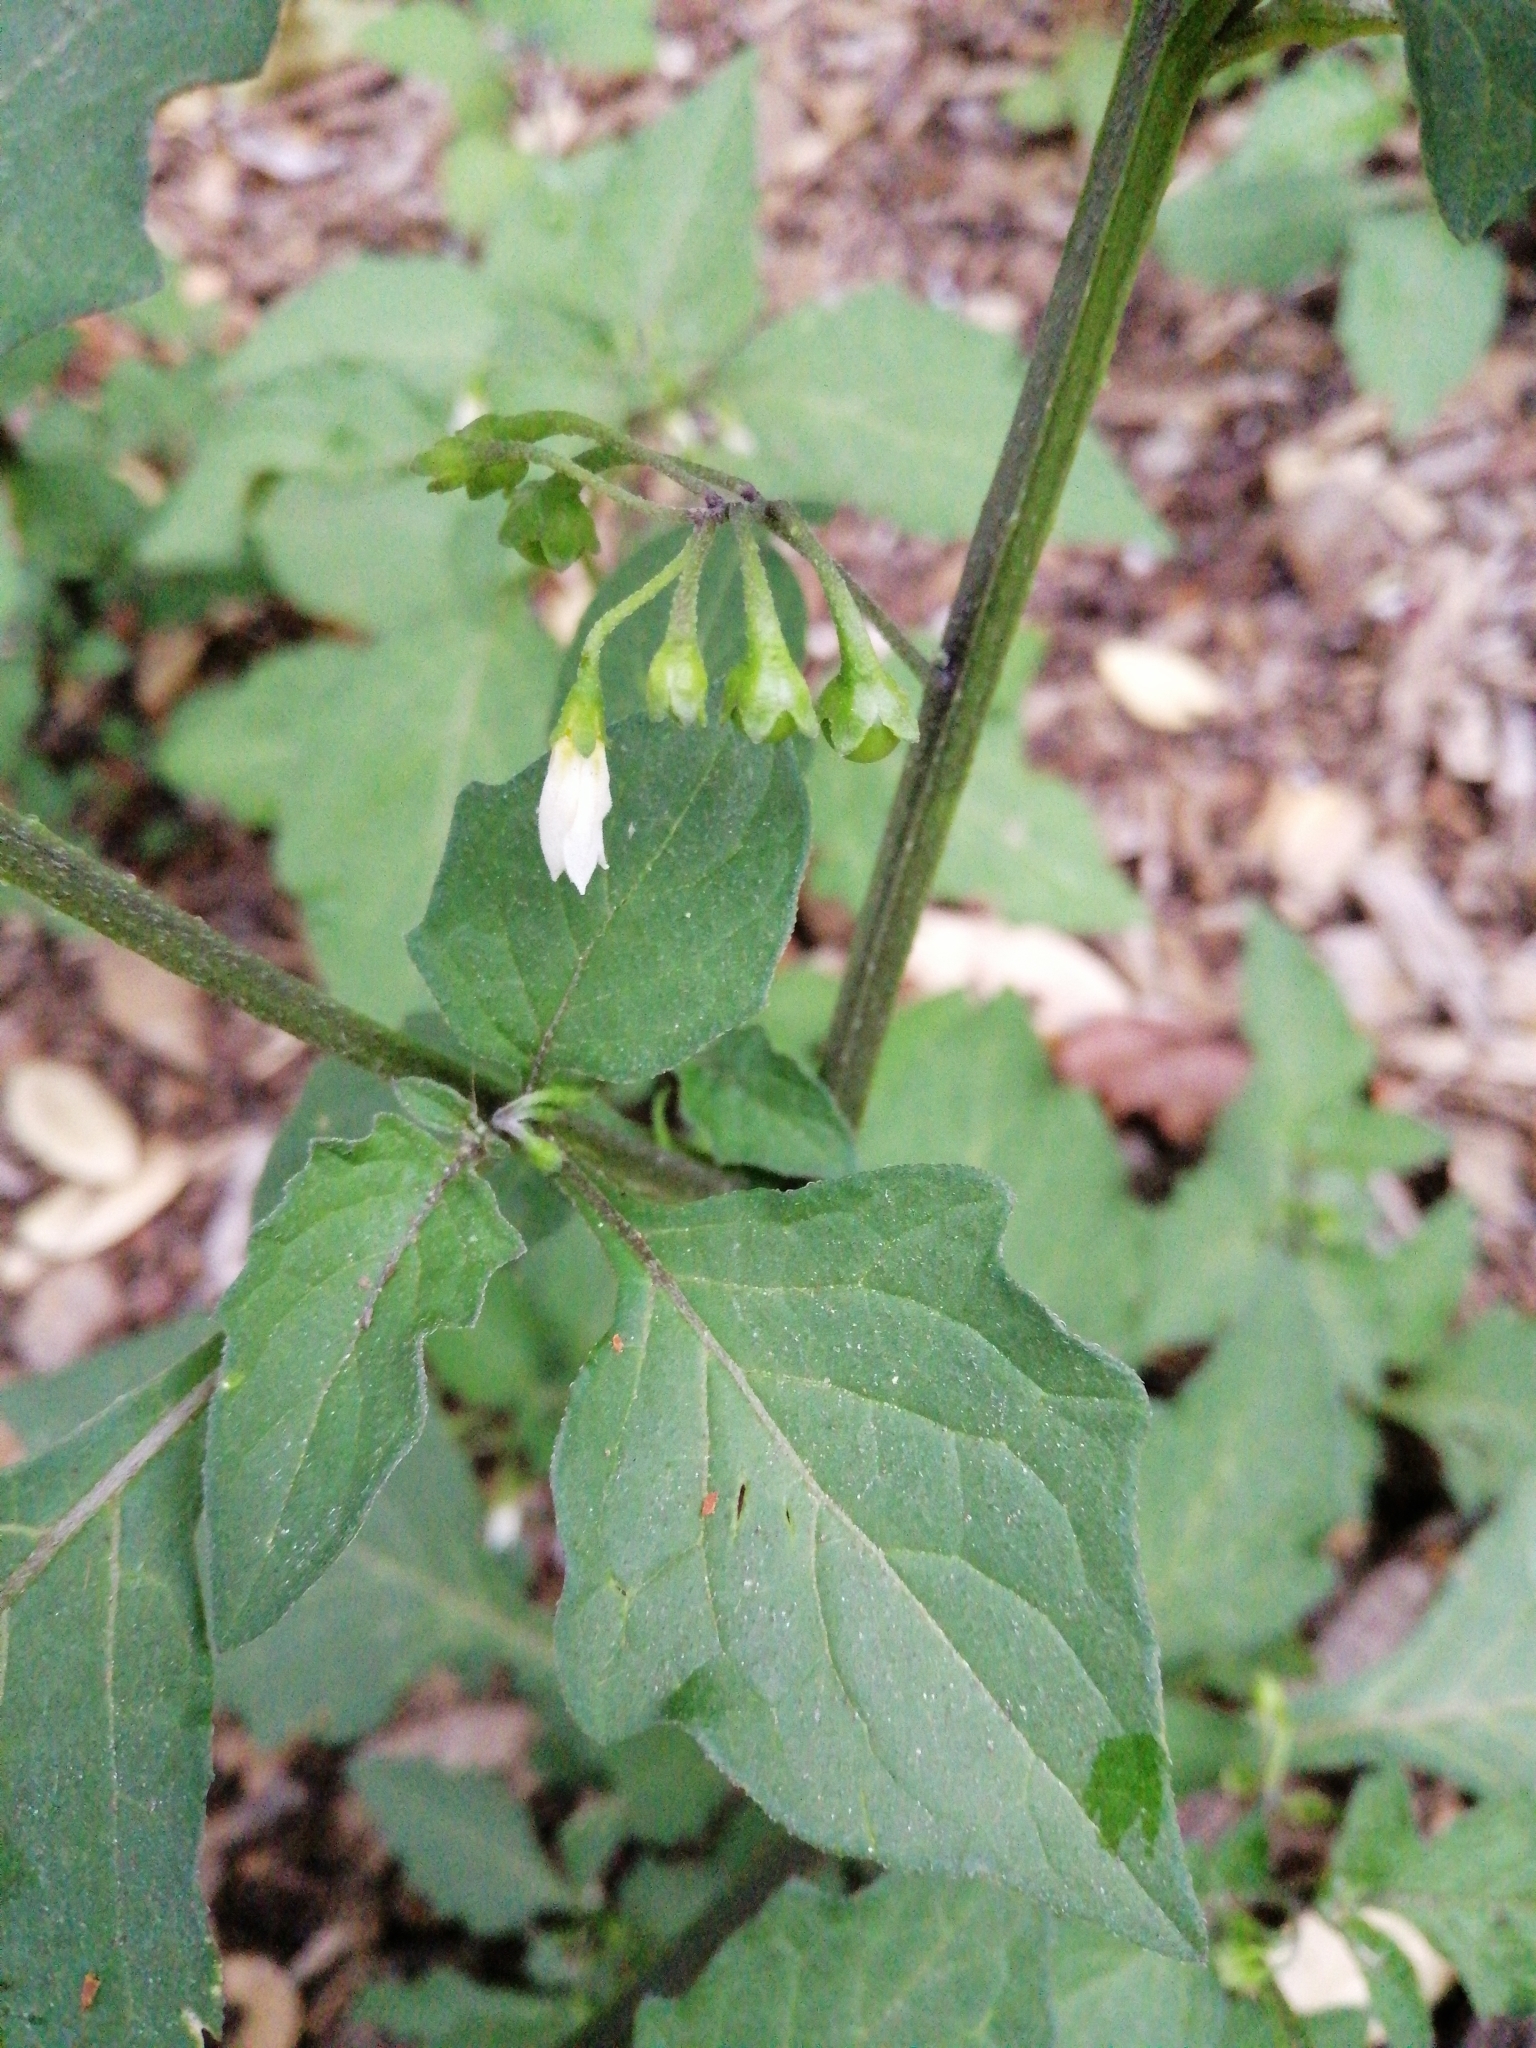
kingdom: Plantae
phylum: Tracheophyta
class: Magnoliopsida
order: Solanales
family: Solanaceae
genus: Solanum
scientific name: Solanum nigrum
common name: Black nightshade
